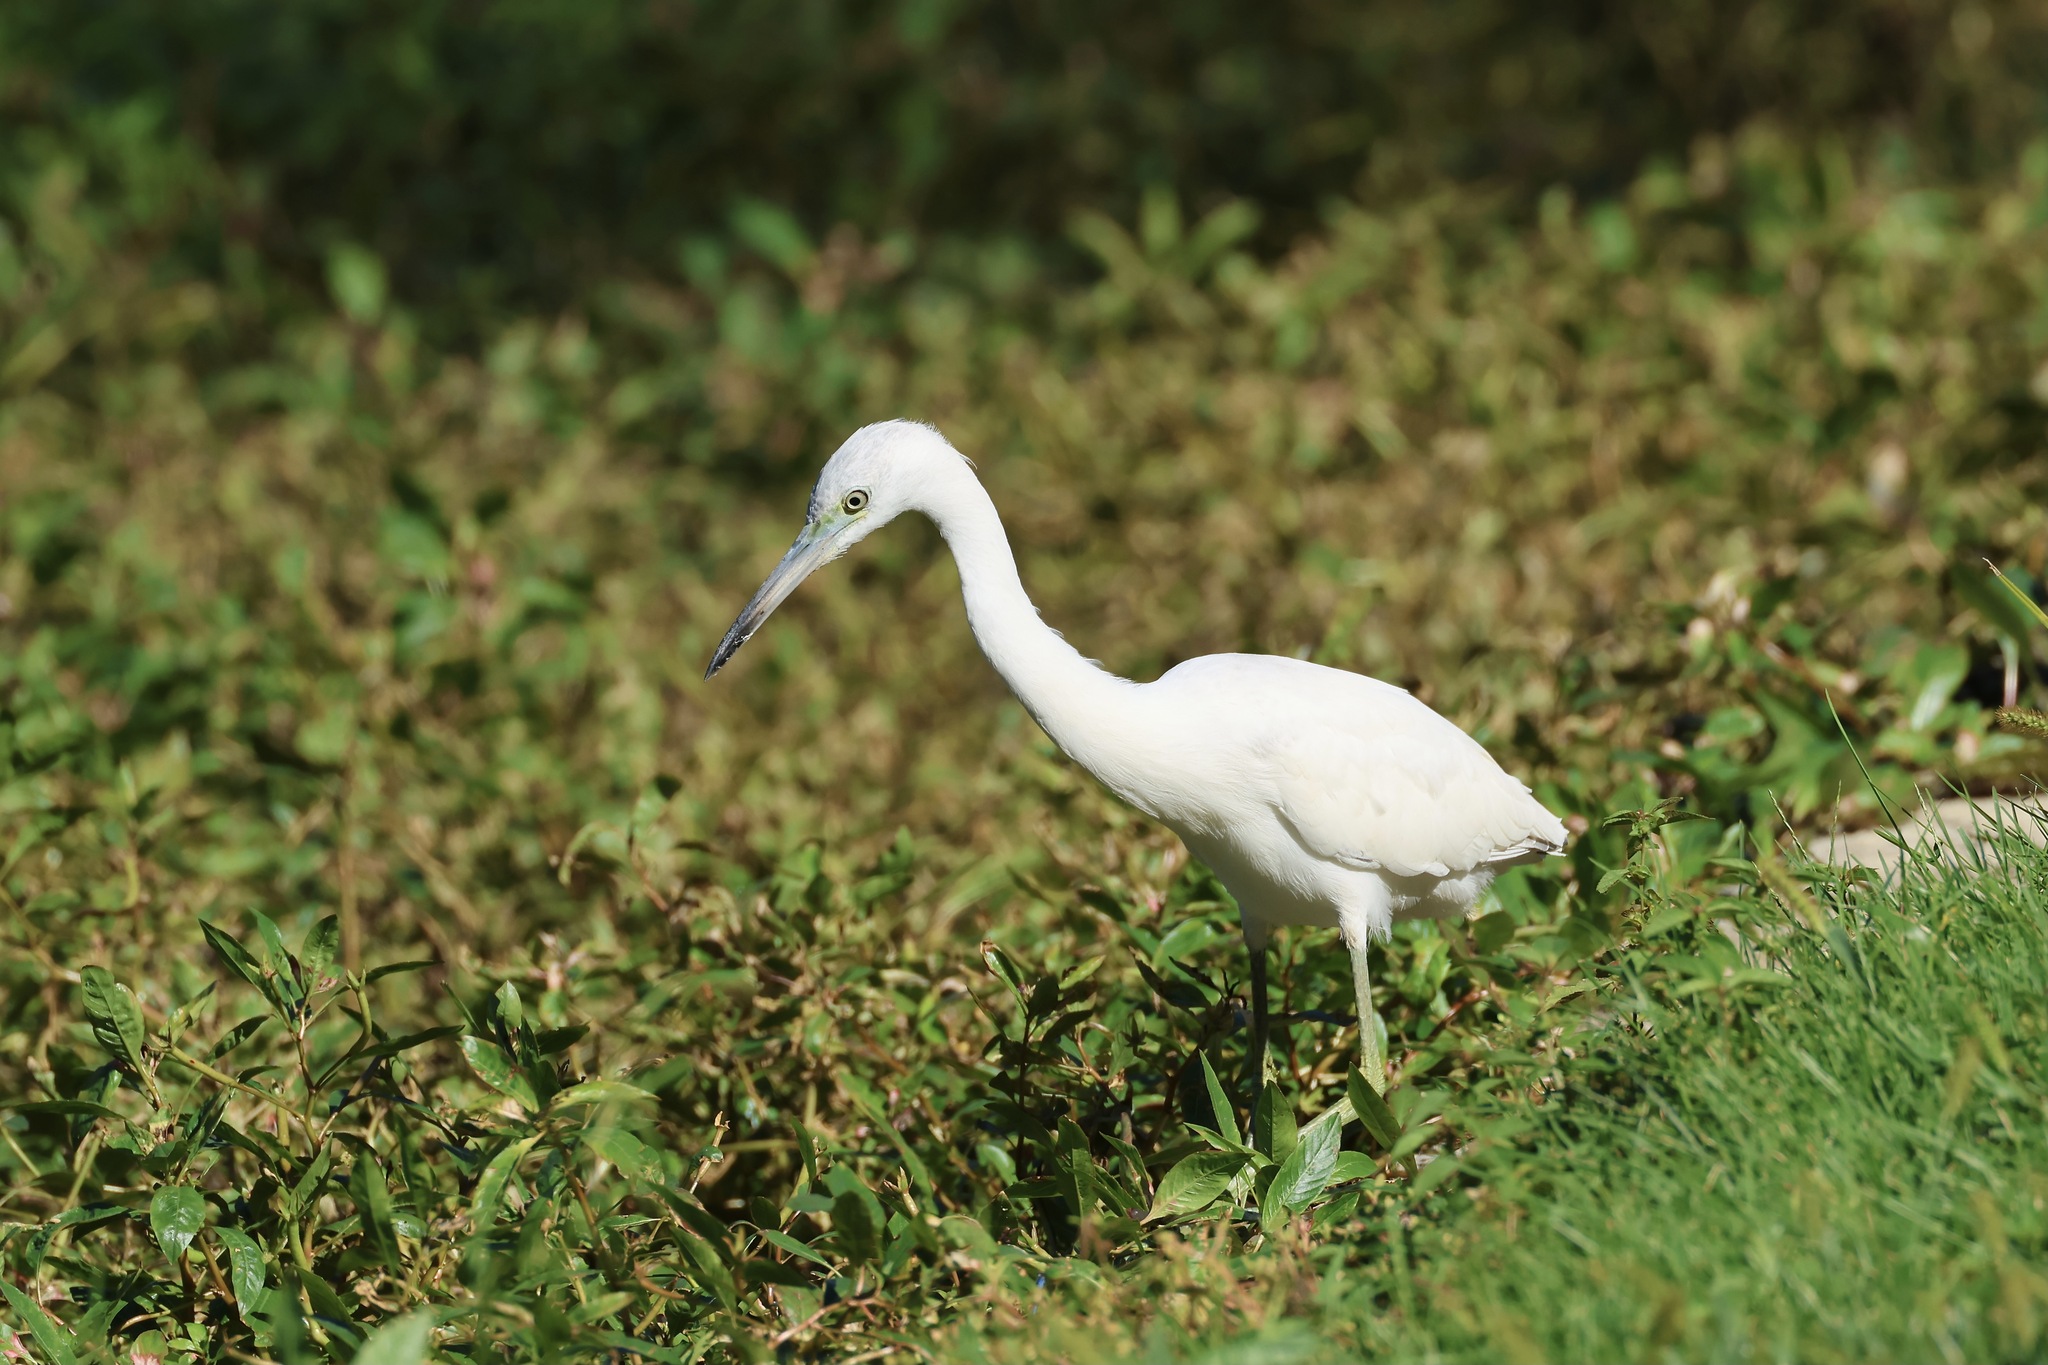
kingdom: Animalia
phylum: Chordata
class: Aves
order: Pelecaniformes
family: Ardeidae
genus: Egretta
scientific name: Egretta caerulea
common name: Little blue heron
